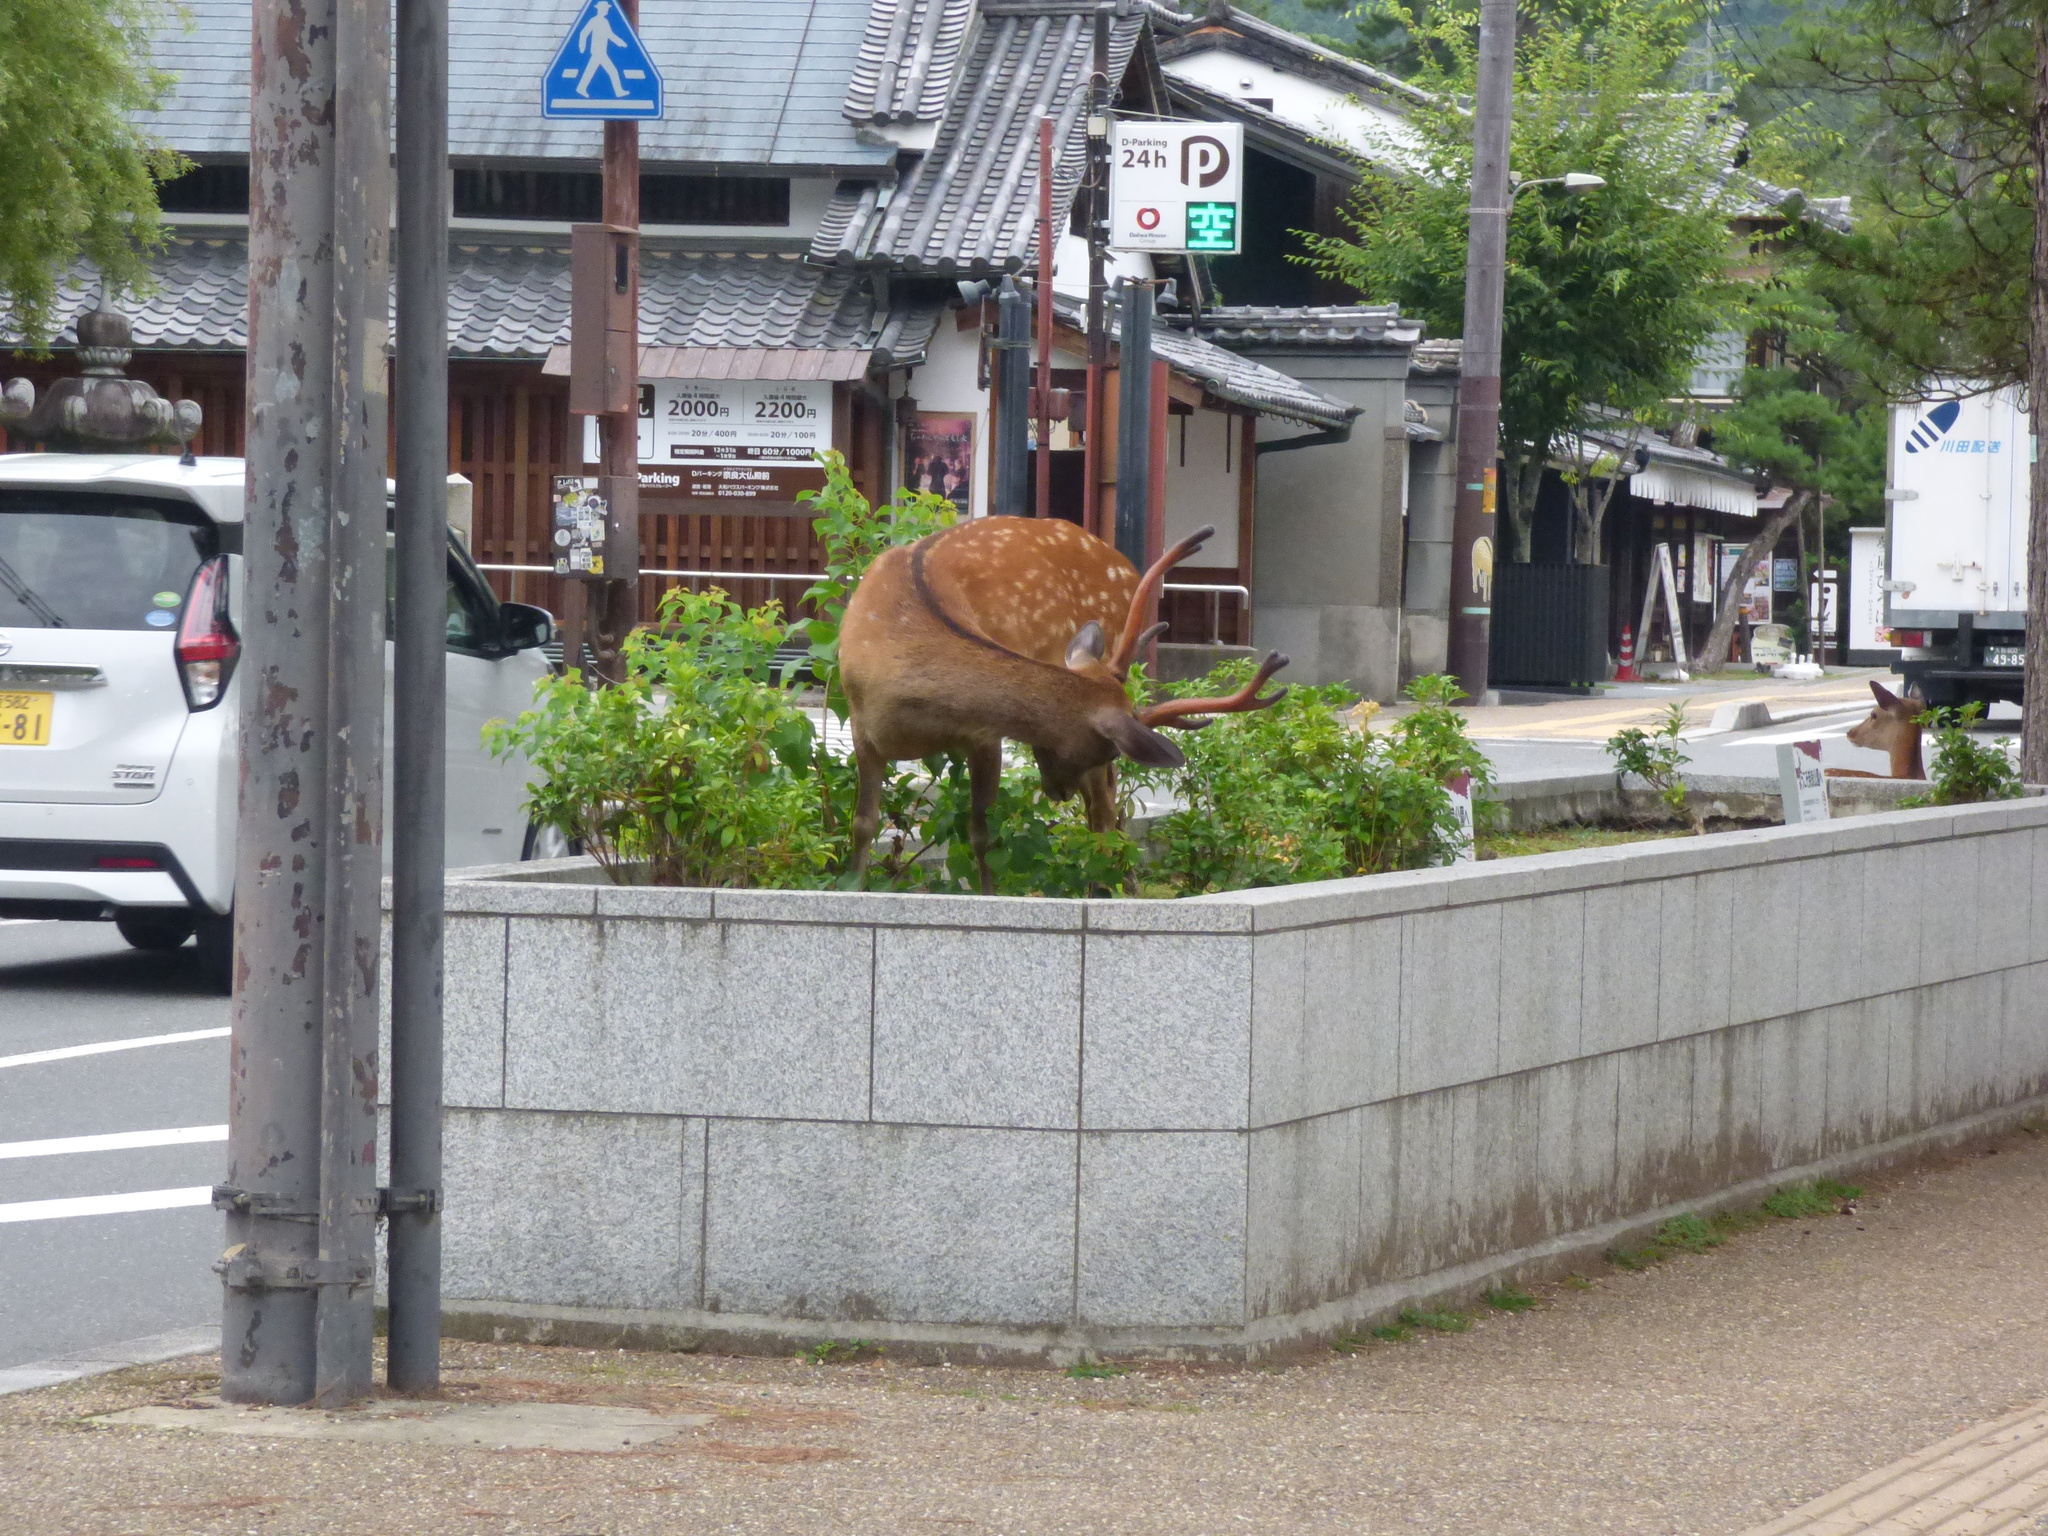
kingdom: Animalia
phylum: Chordata
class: Mammalia
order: Artiodactyla
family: Cervidae
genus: Cervus
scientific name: Cervus nippon
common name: Sika deer
